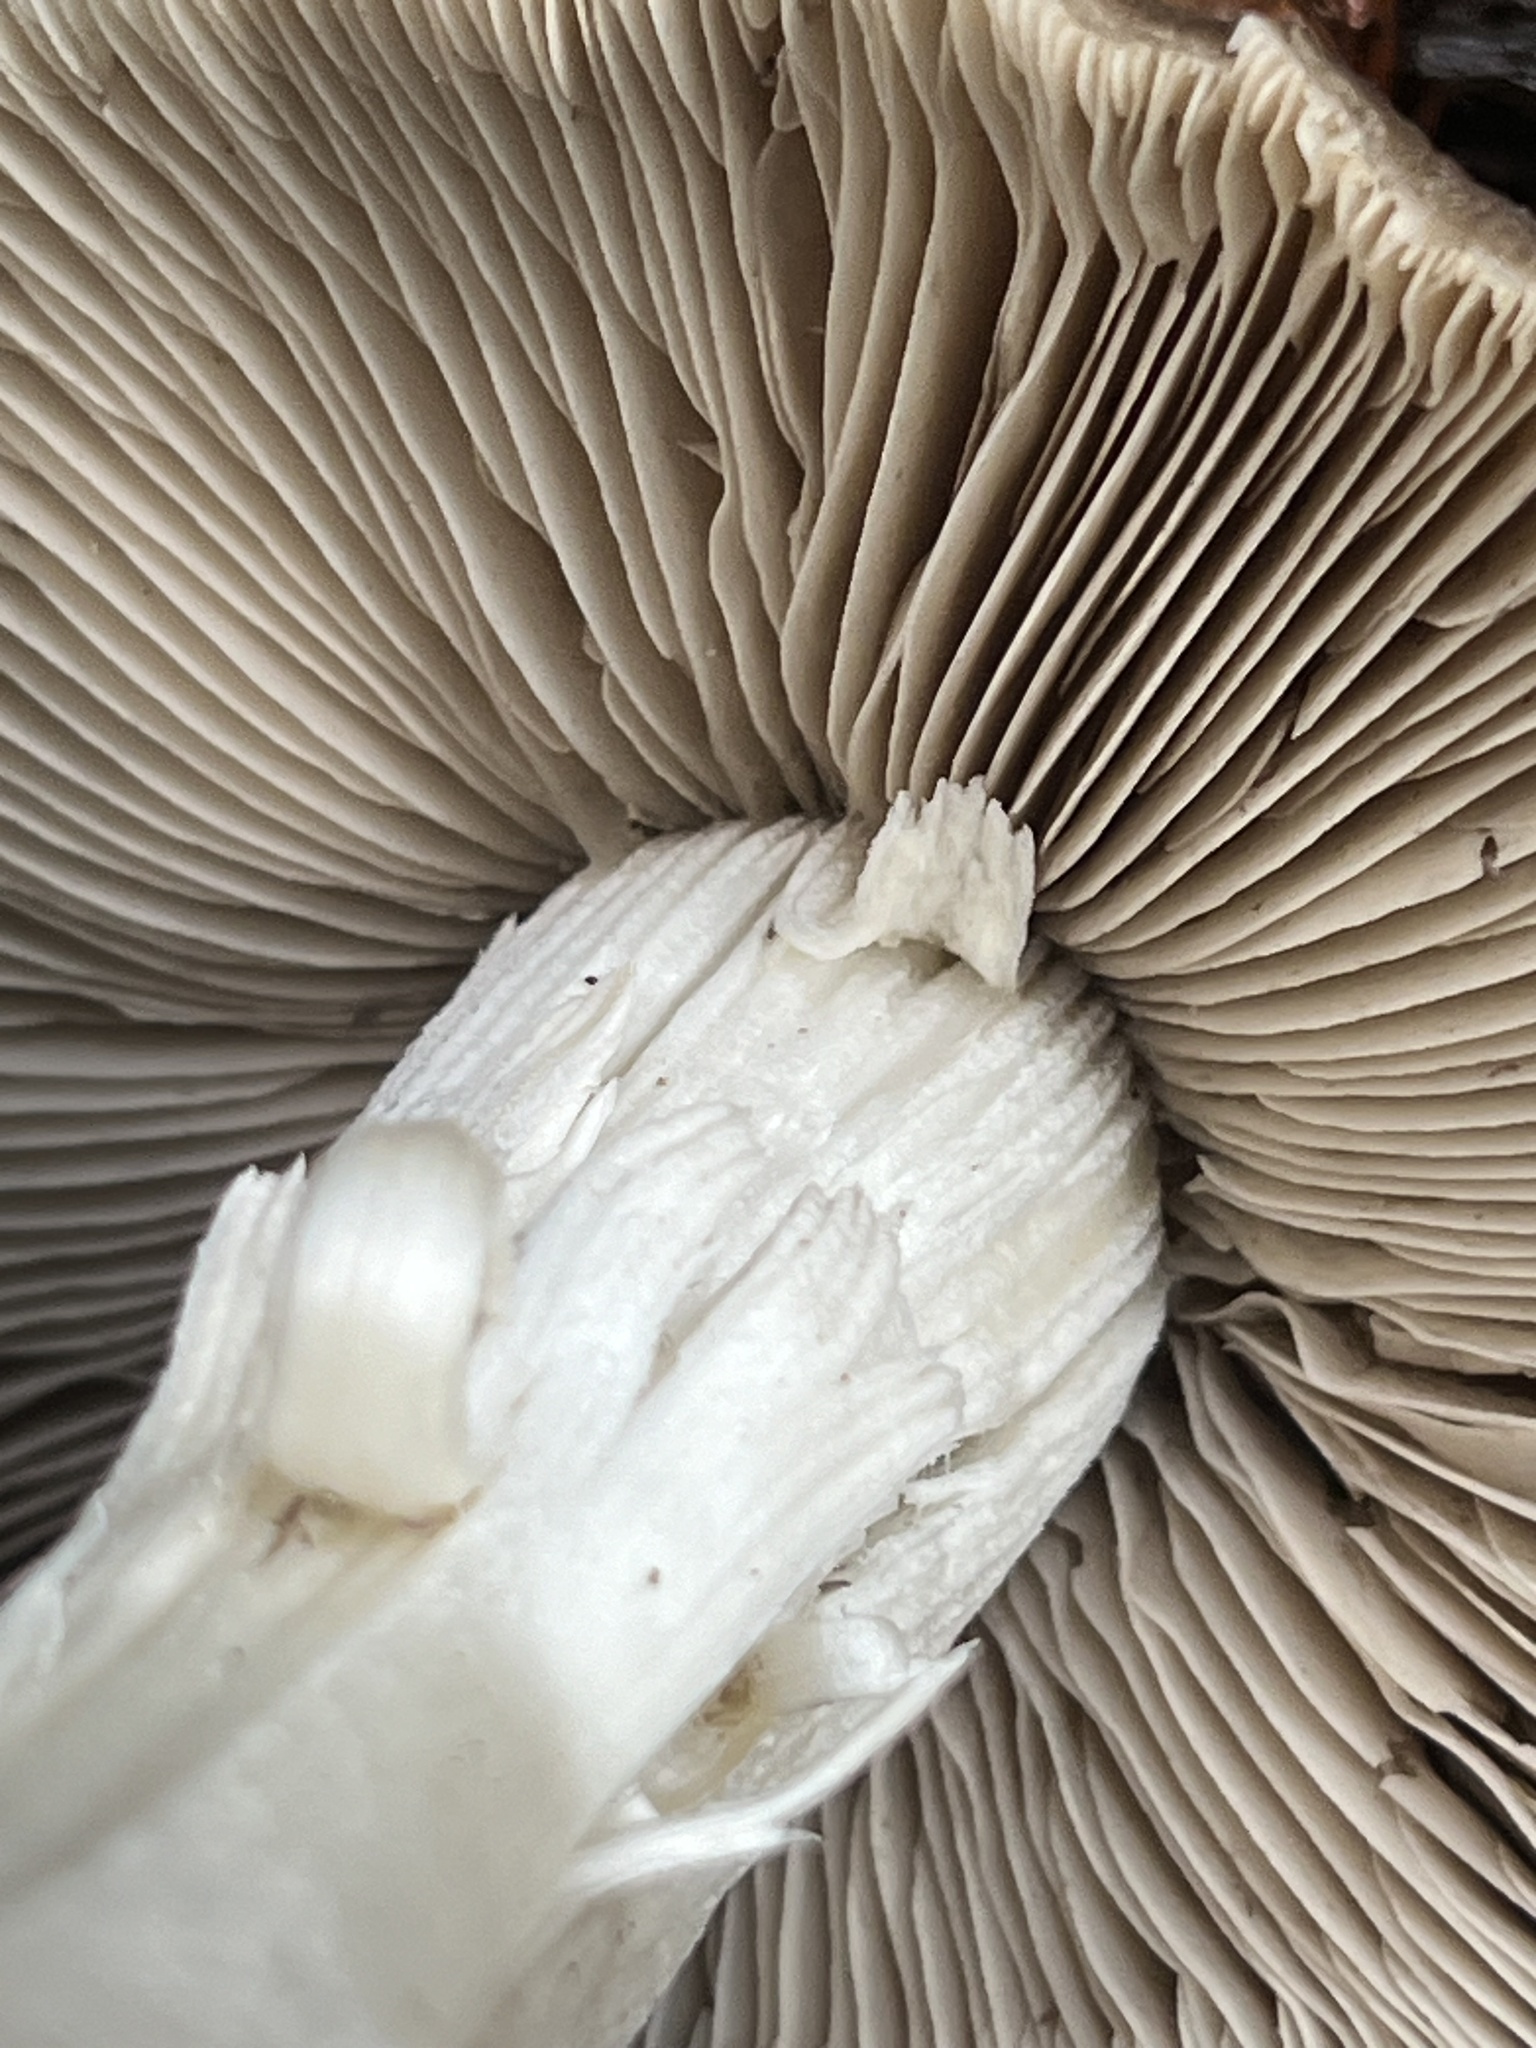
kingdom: Fungi
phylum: Basidiomycota
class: Agaricomycetes
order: Agaricales
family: Psathyrellaceae
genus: Psathyrella
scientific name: Psathyrella uliginicola
